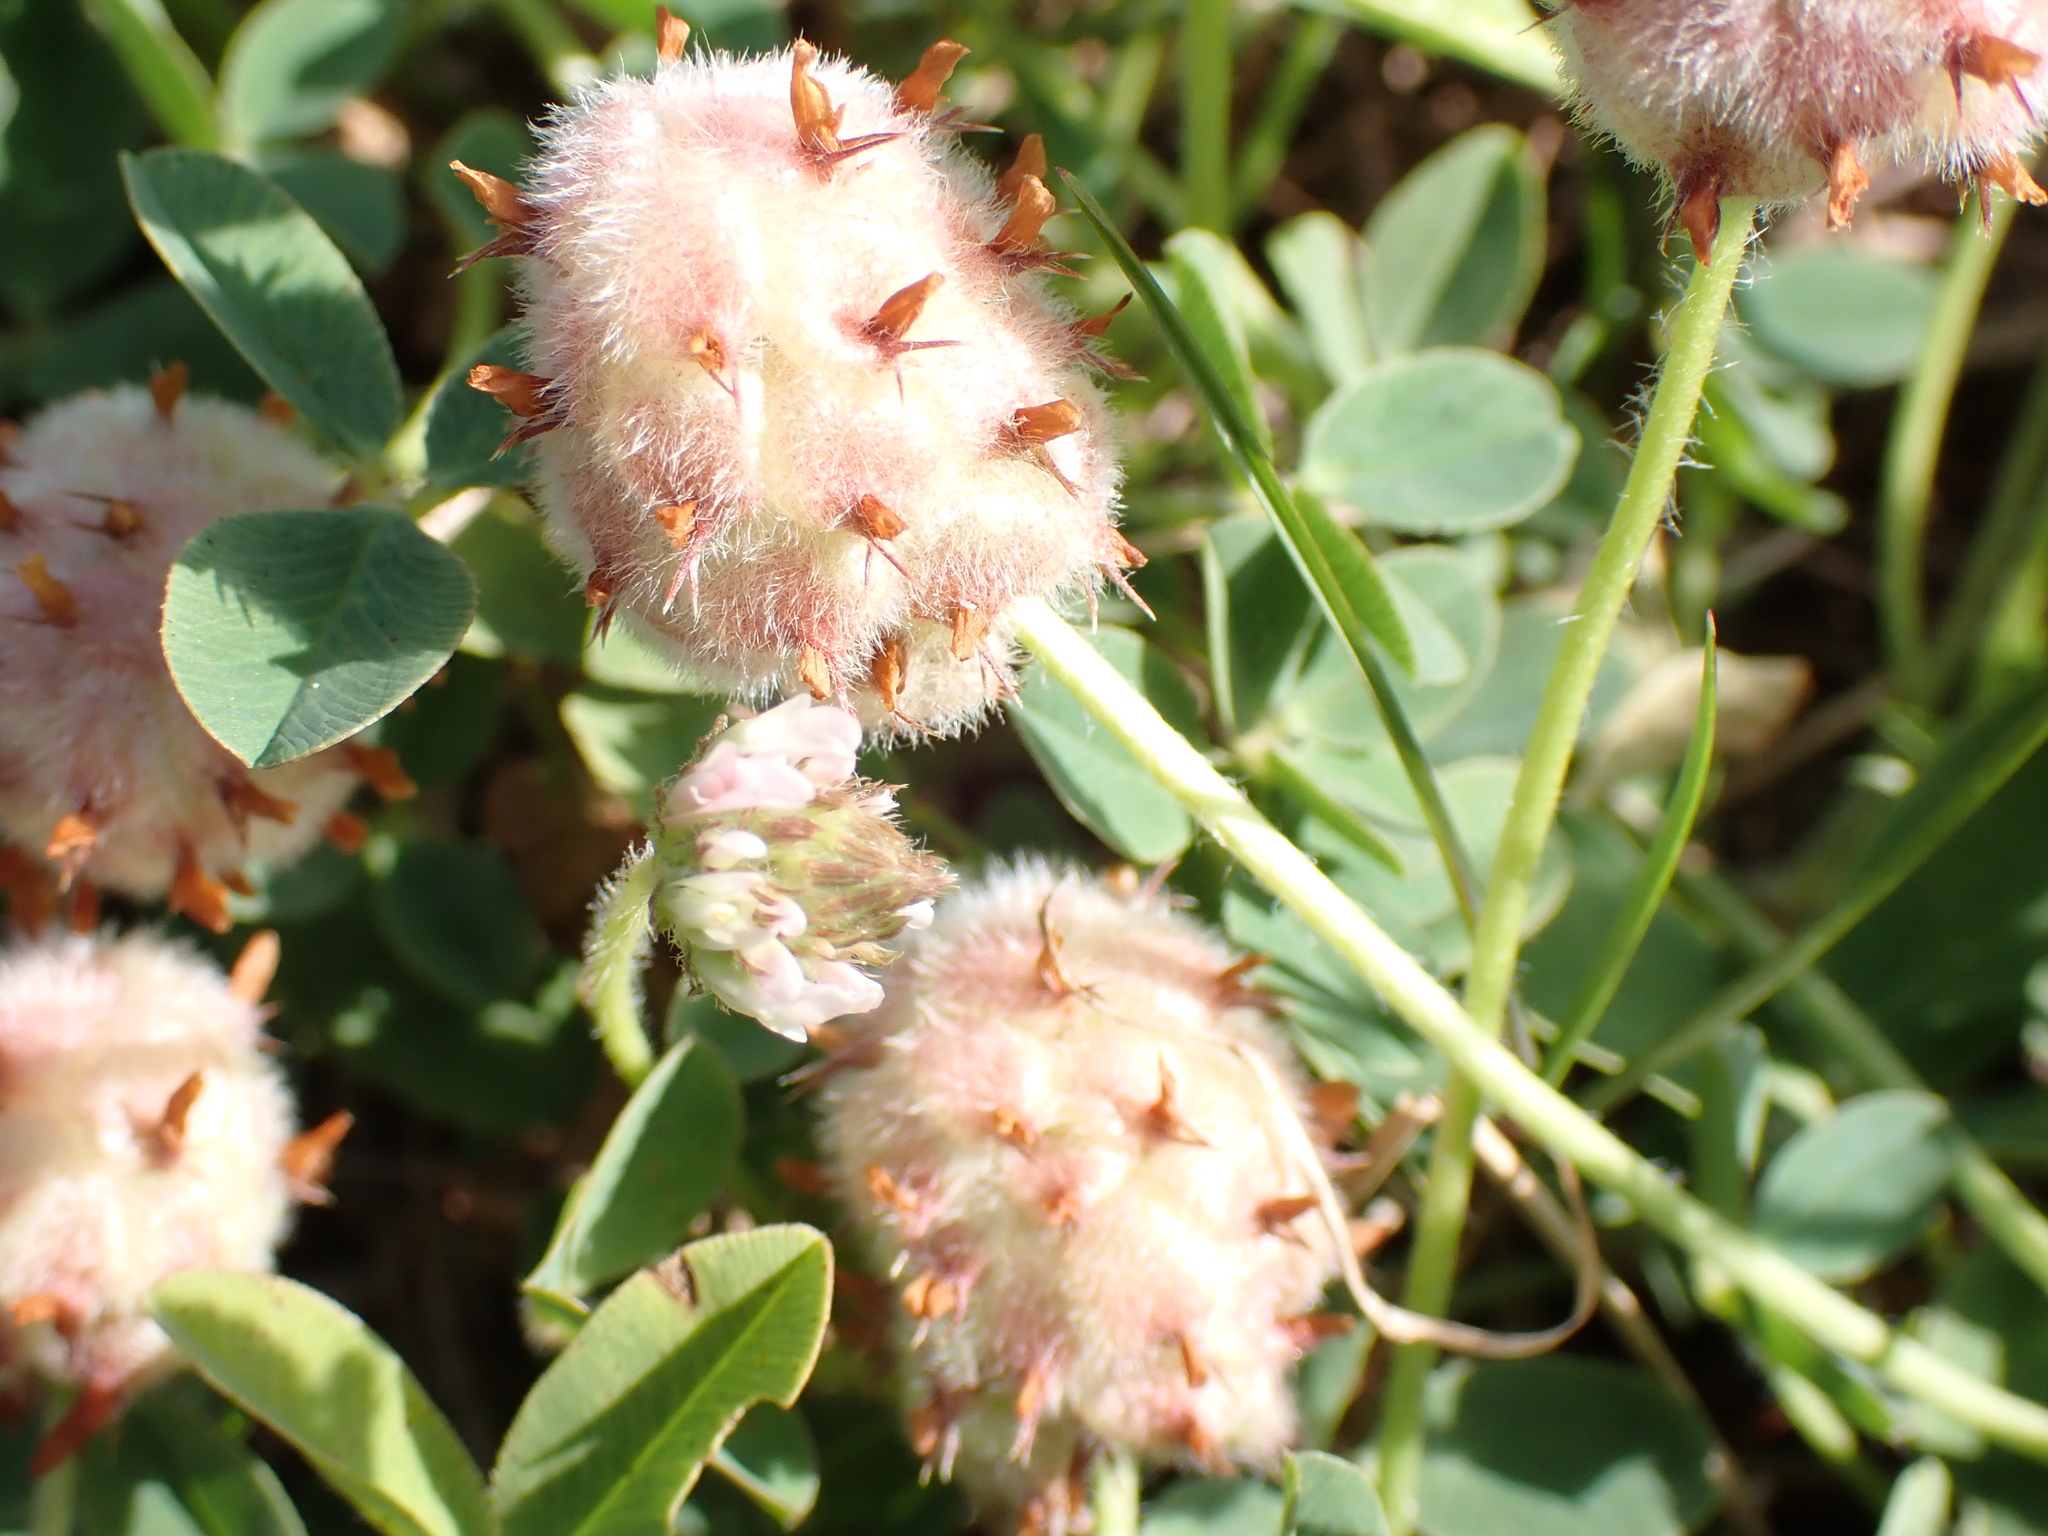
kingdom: Plantae
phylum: Tracheophyta
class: Magnoliopsida
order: Fabales
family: Fabaceae
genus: Trifolium
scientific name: Trifolium fragiferum
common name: Strawberry clover
